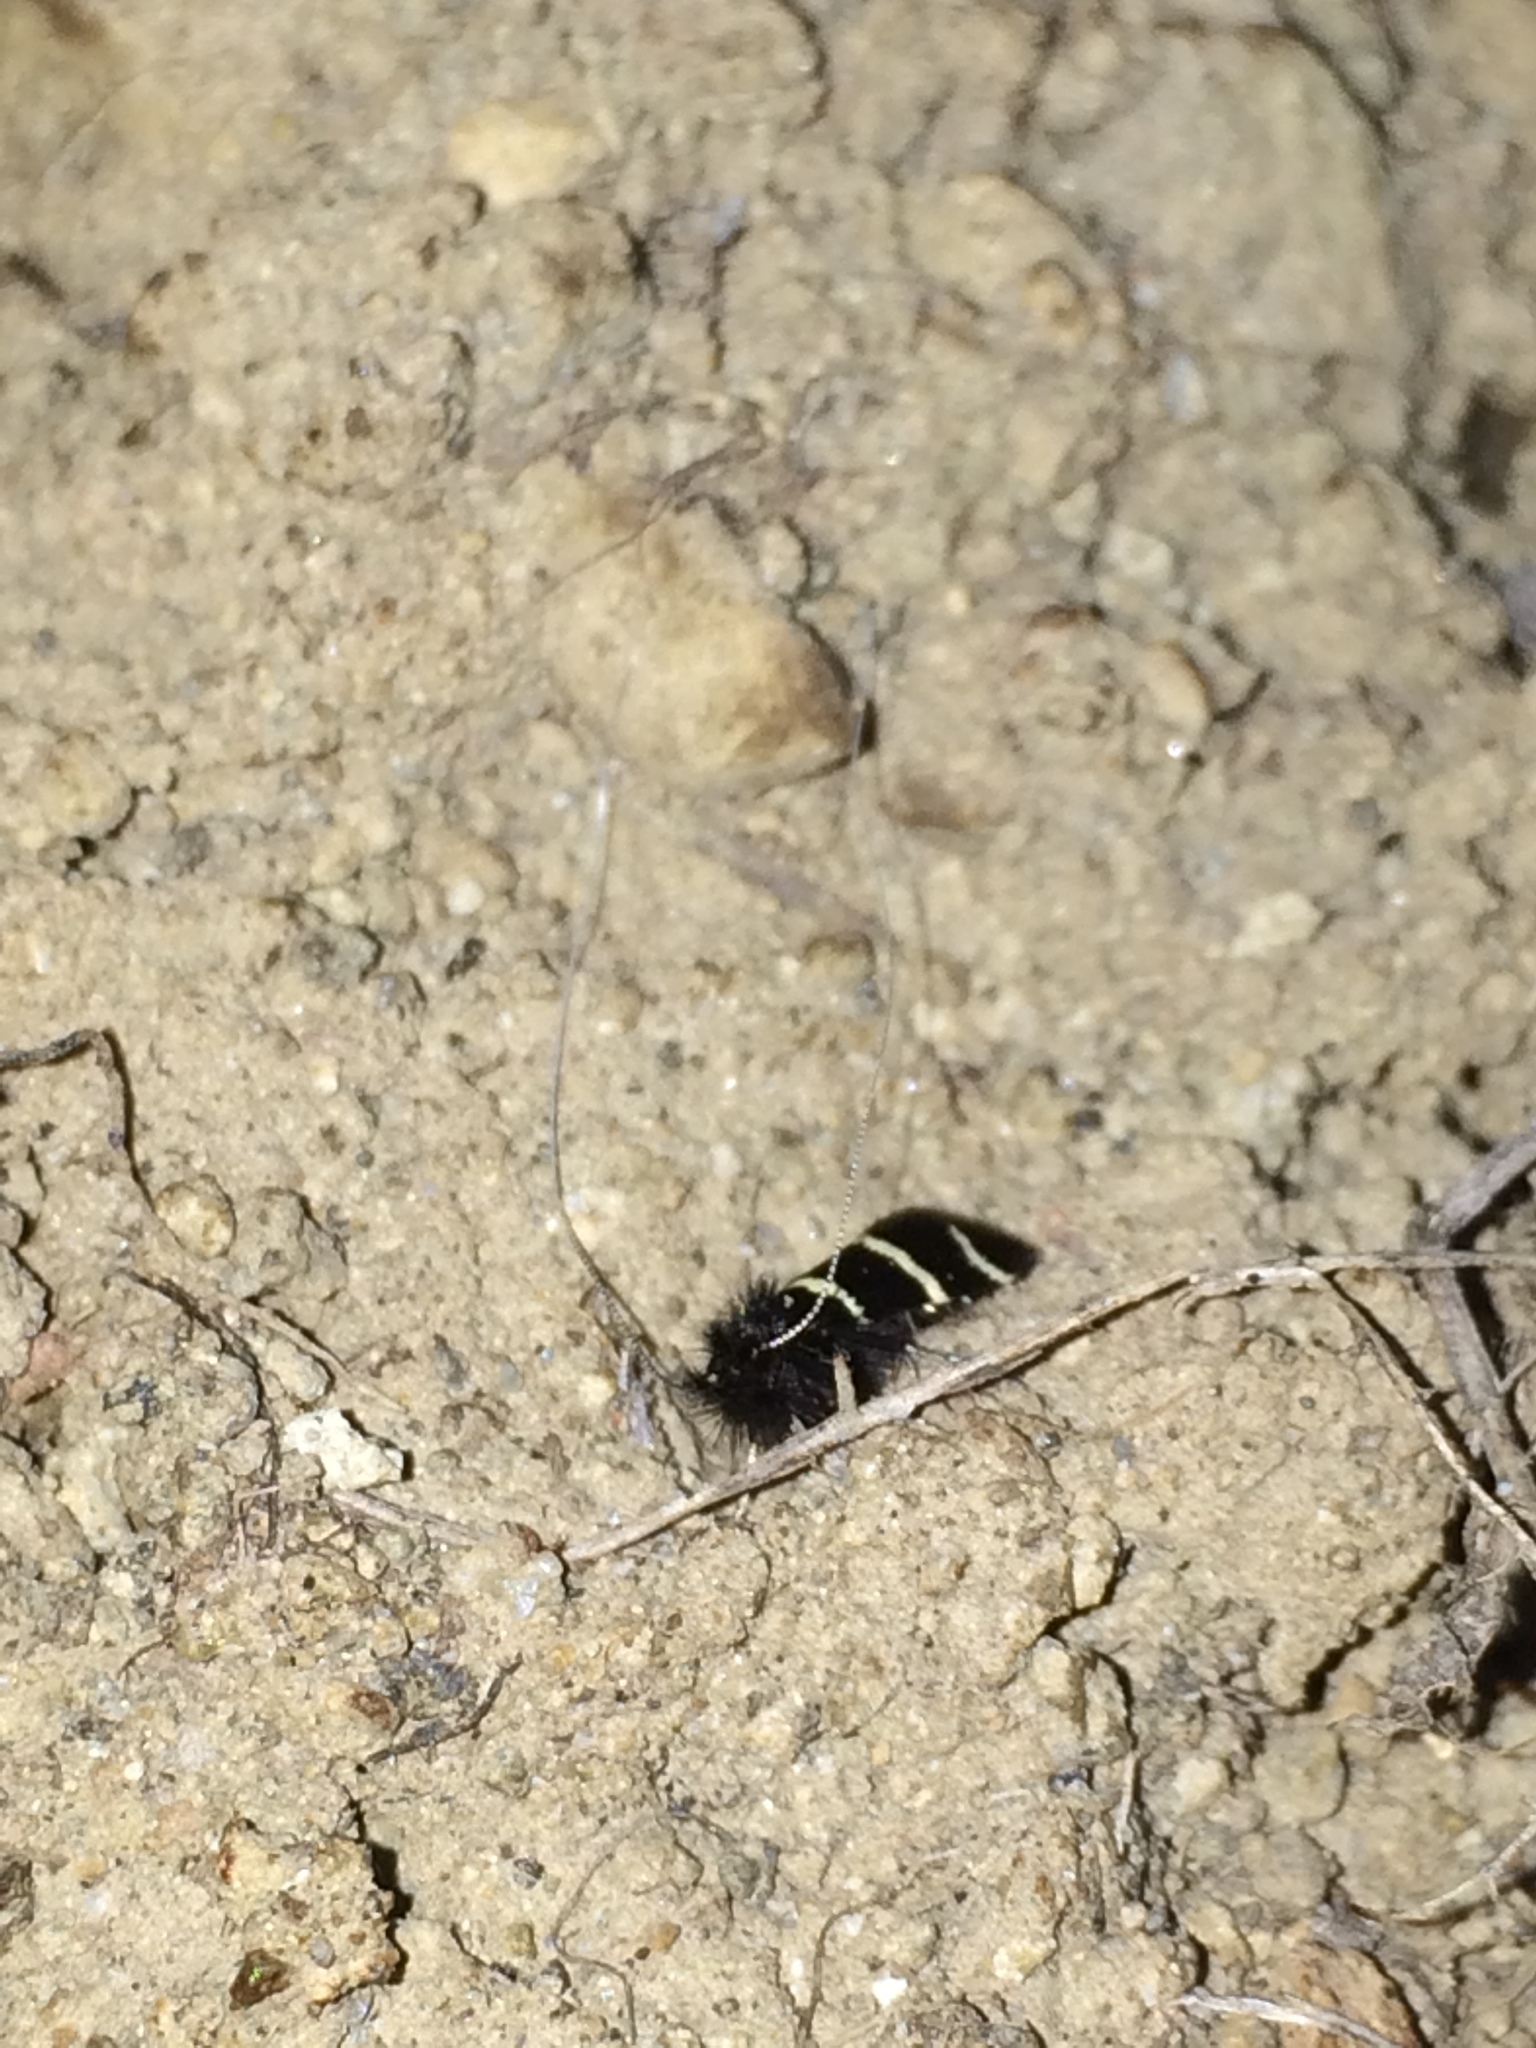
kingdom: Animalia
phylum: Arthropoda
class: Insecta
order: Lepidoptera
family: Adelidae
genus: Adela
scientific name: Adela trigrapha
